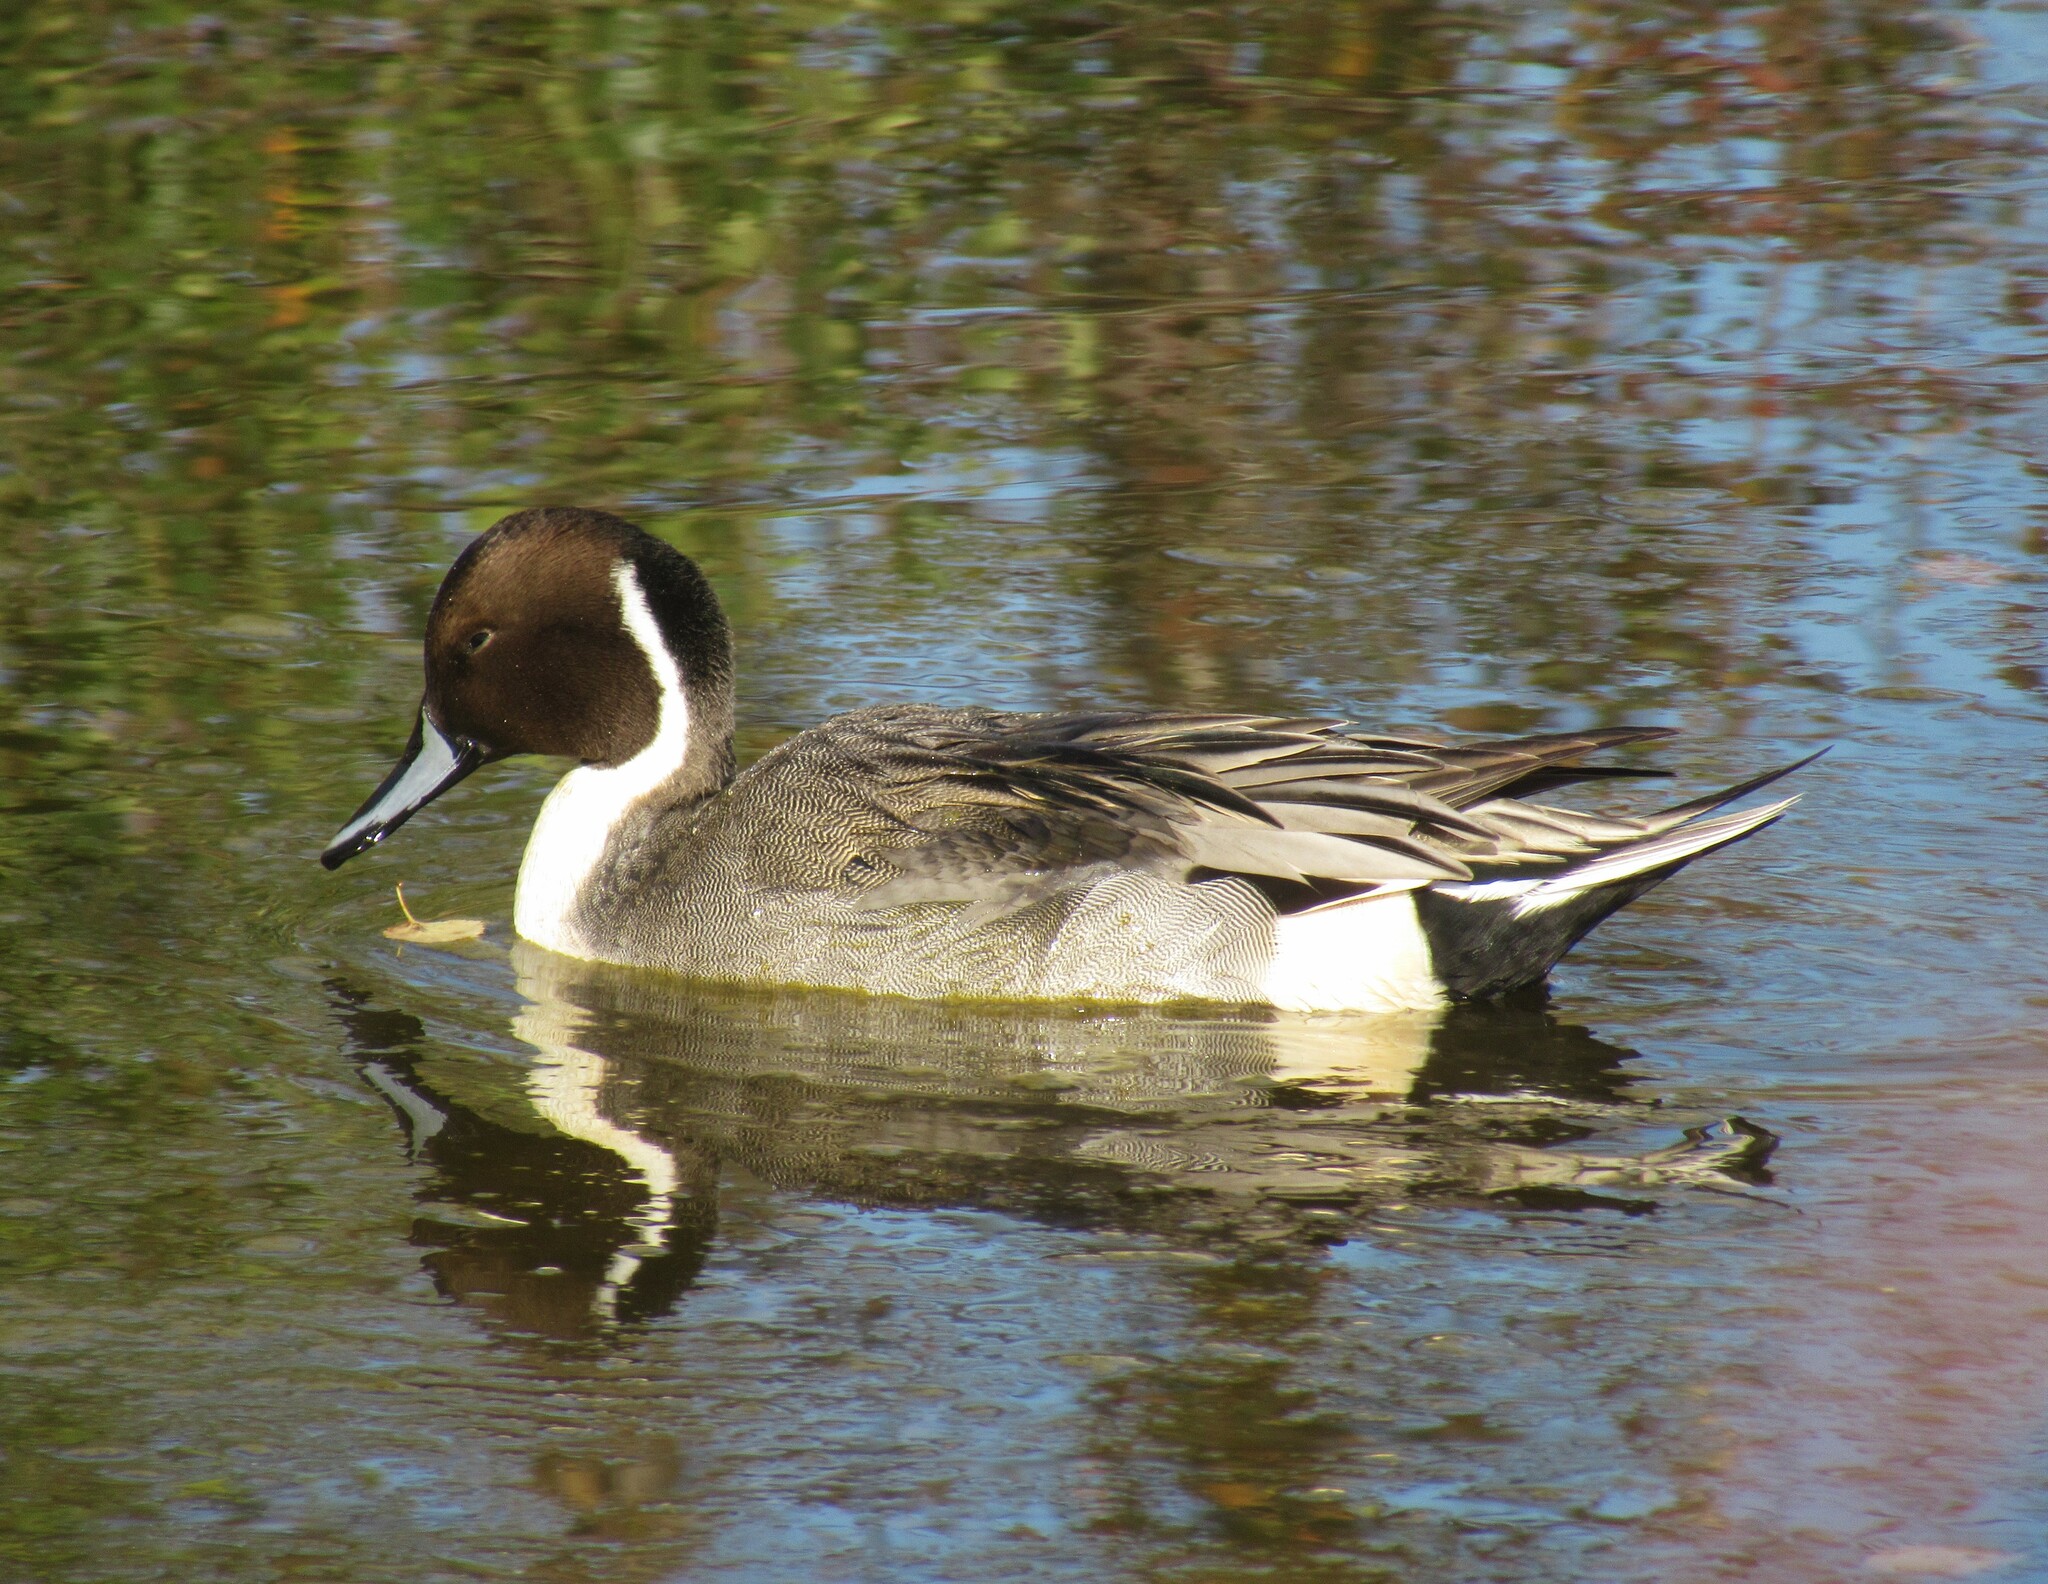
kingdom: Animalia
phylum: Chordata
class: Aves
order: Anseriformes
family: Anatidae
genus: Anas
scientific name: Anas acuta
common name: Northern pintail
